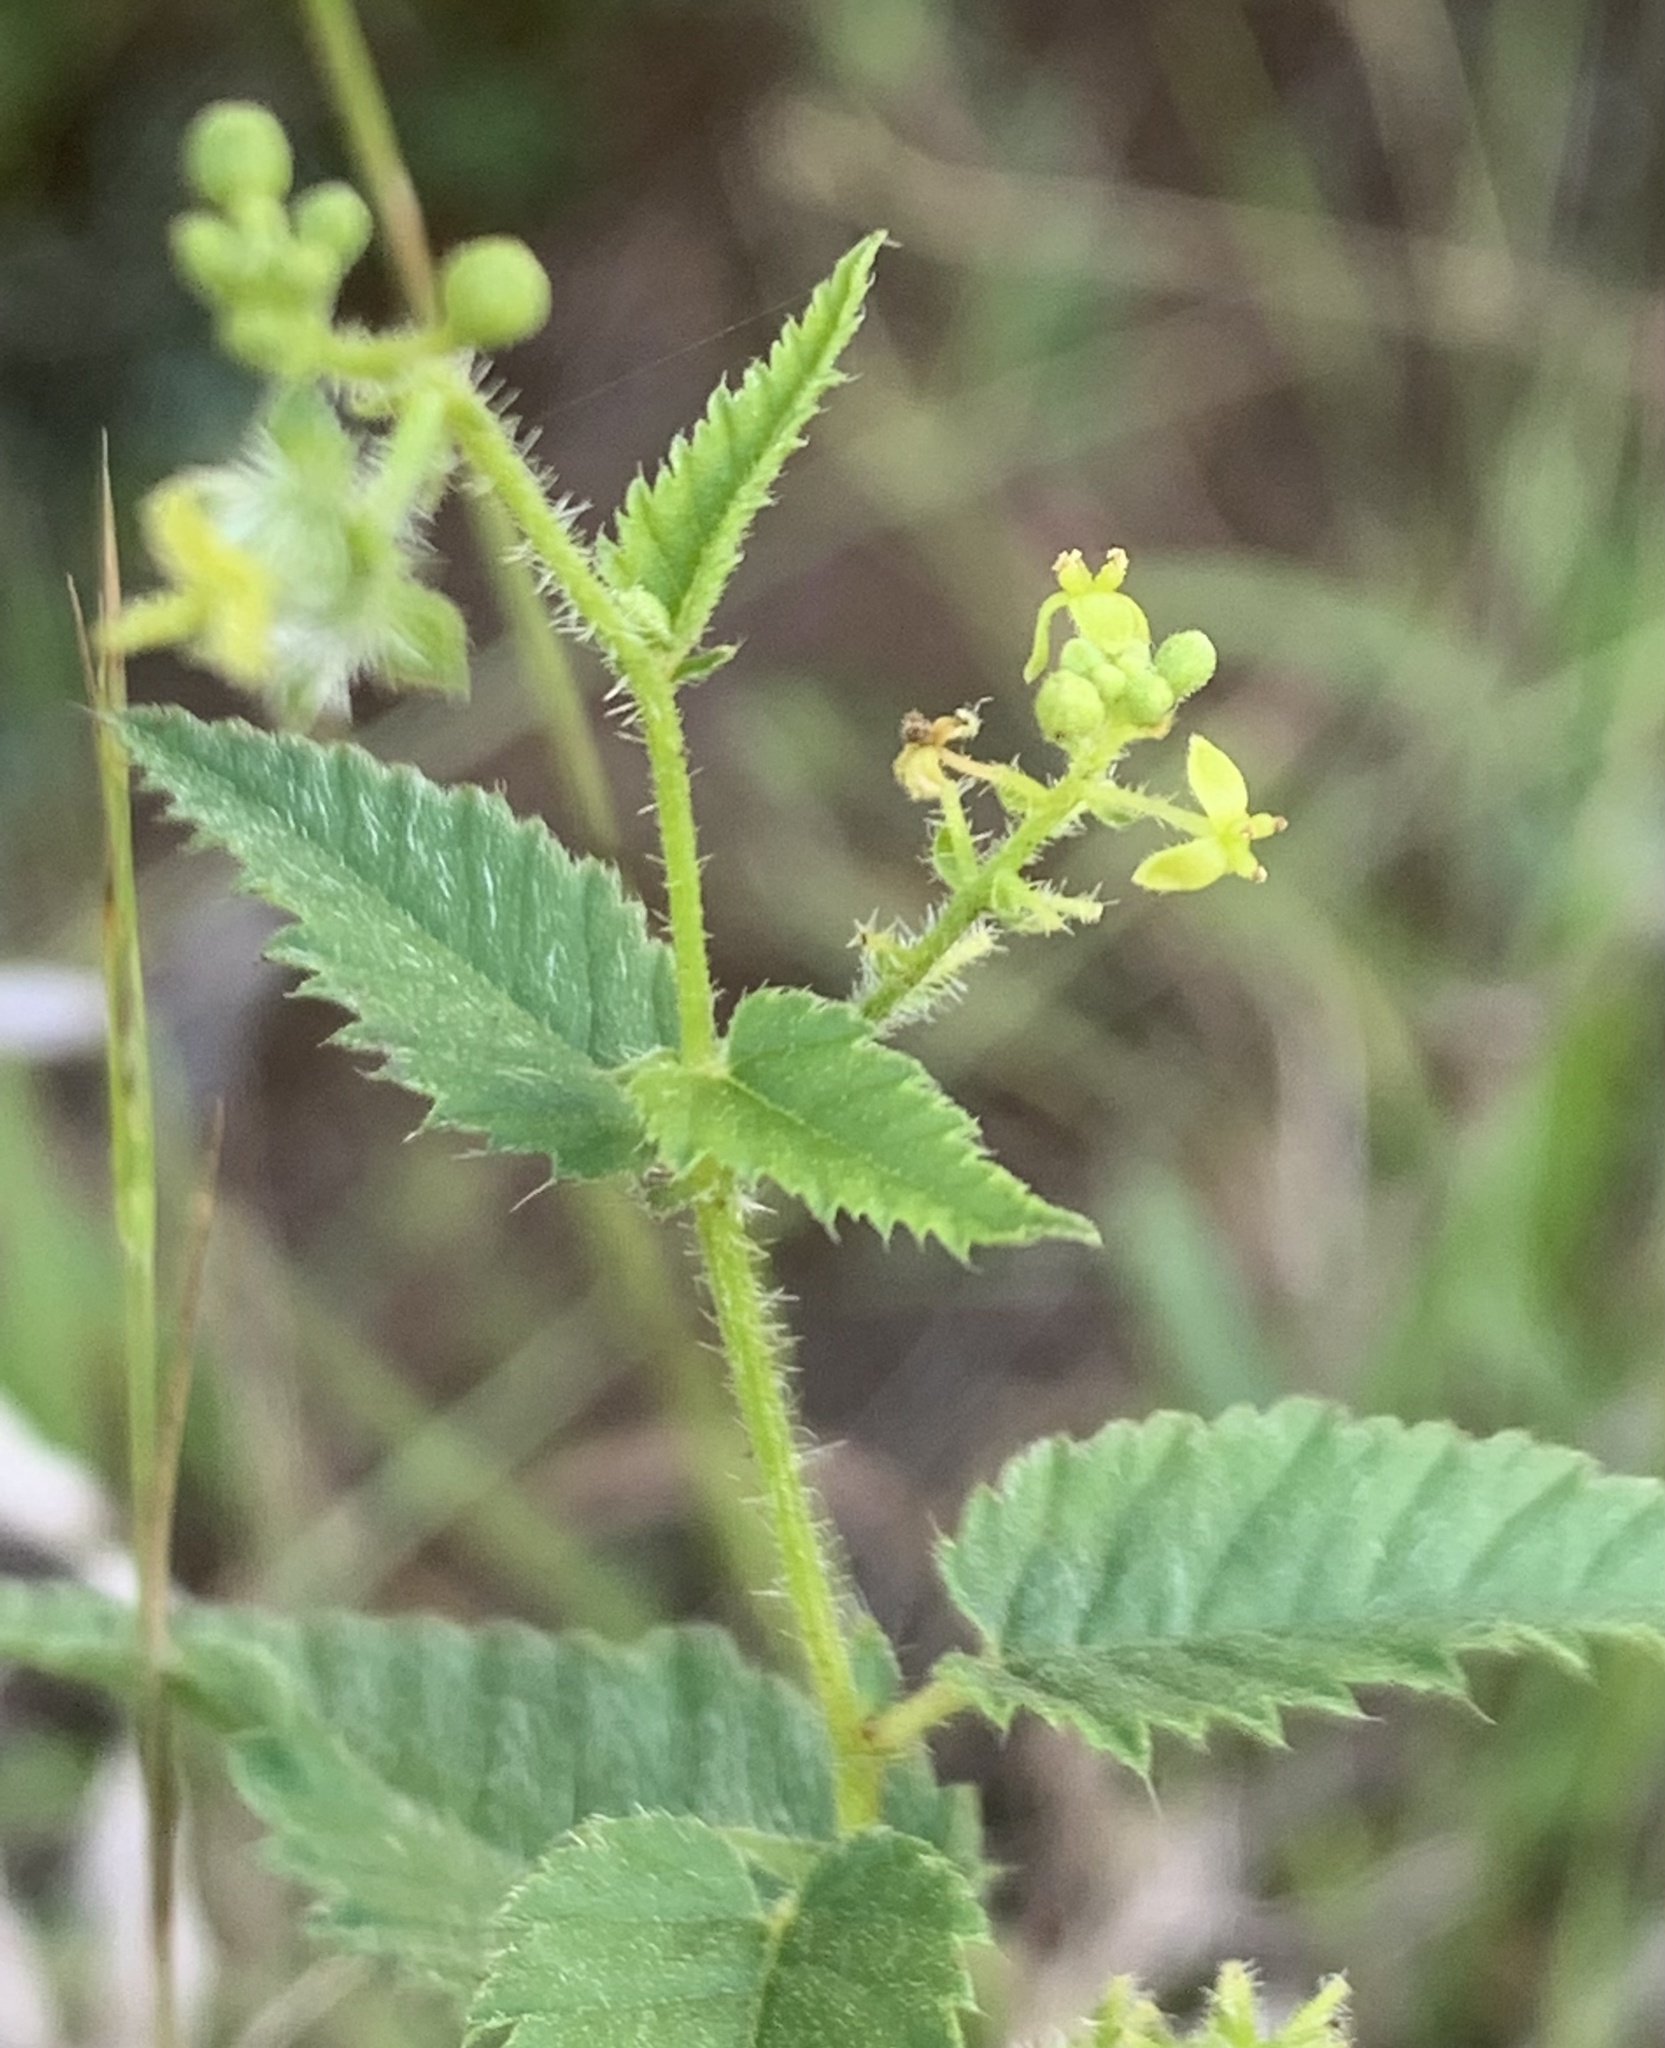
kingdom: Plantae
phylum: Tracheophyta
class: Magnoliopsida
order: Malpighiales
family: Euphorbiaceae
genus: Tragia
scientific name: Tragia urticifolia
